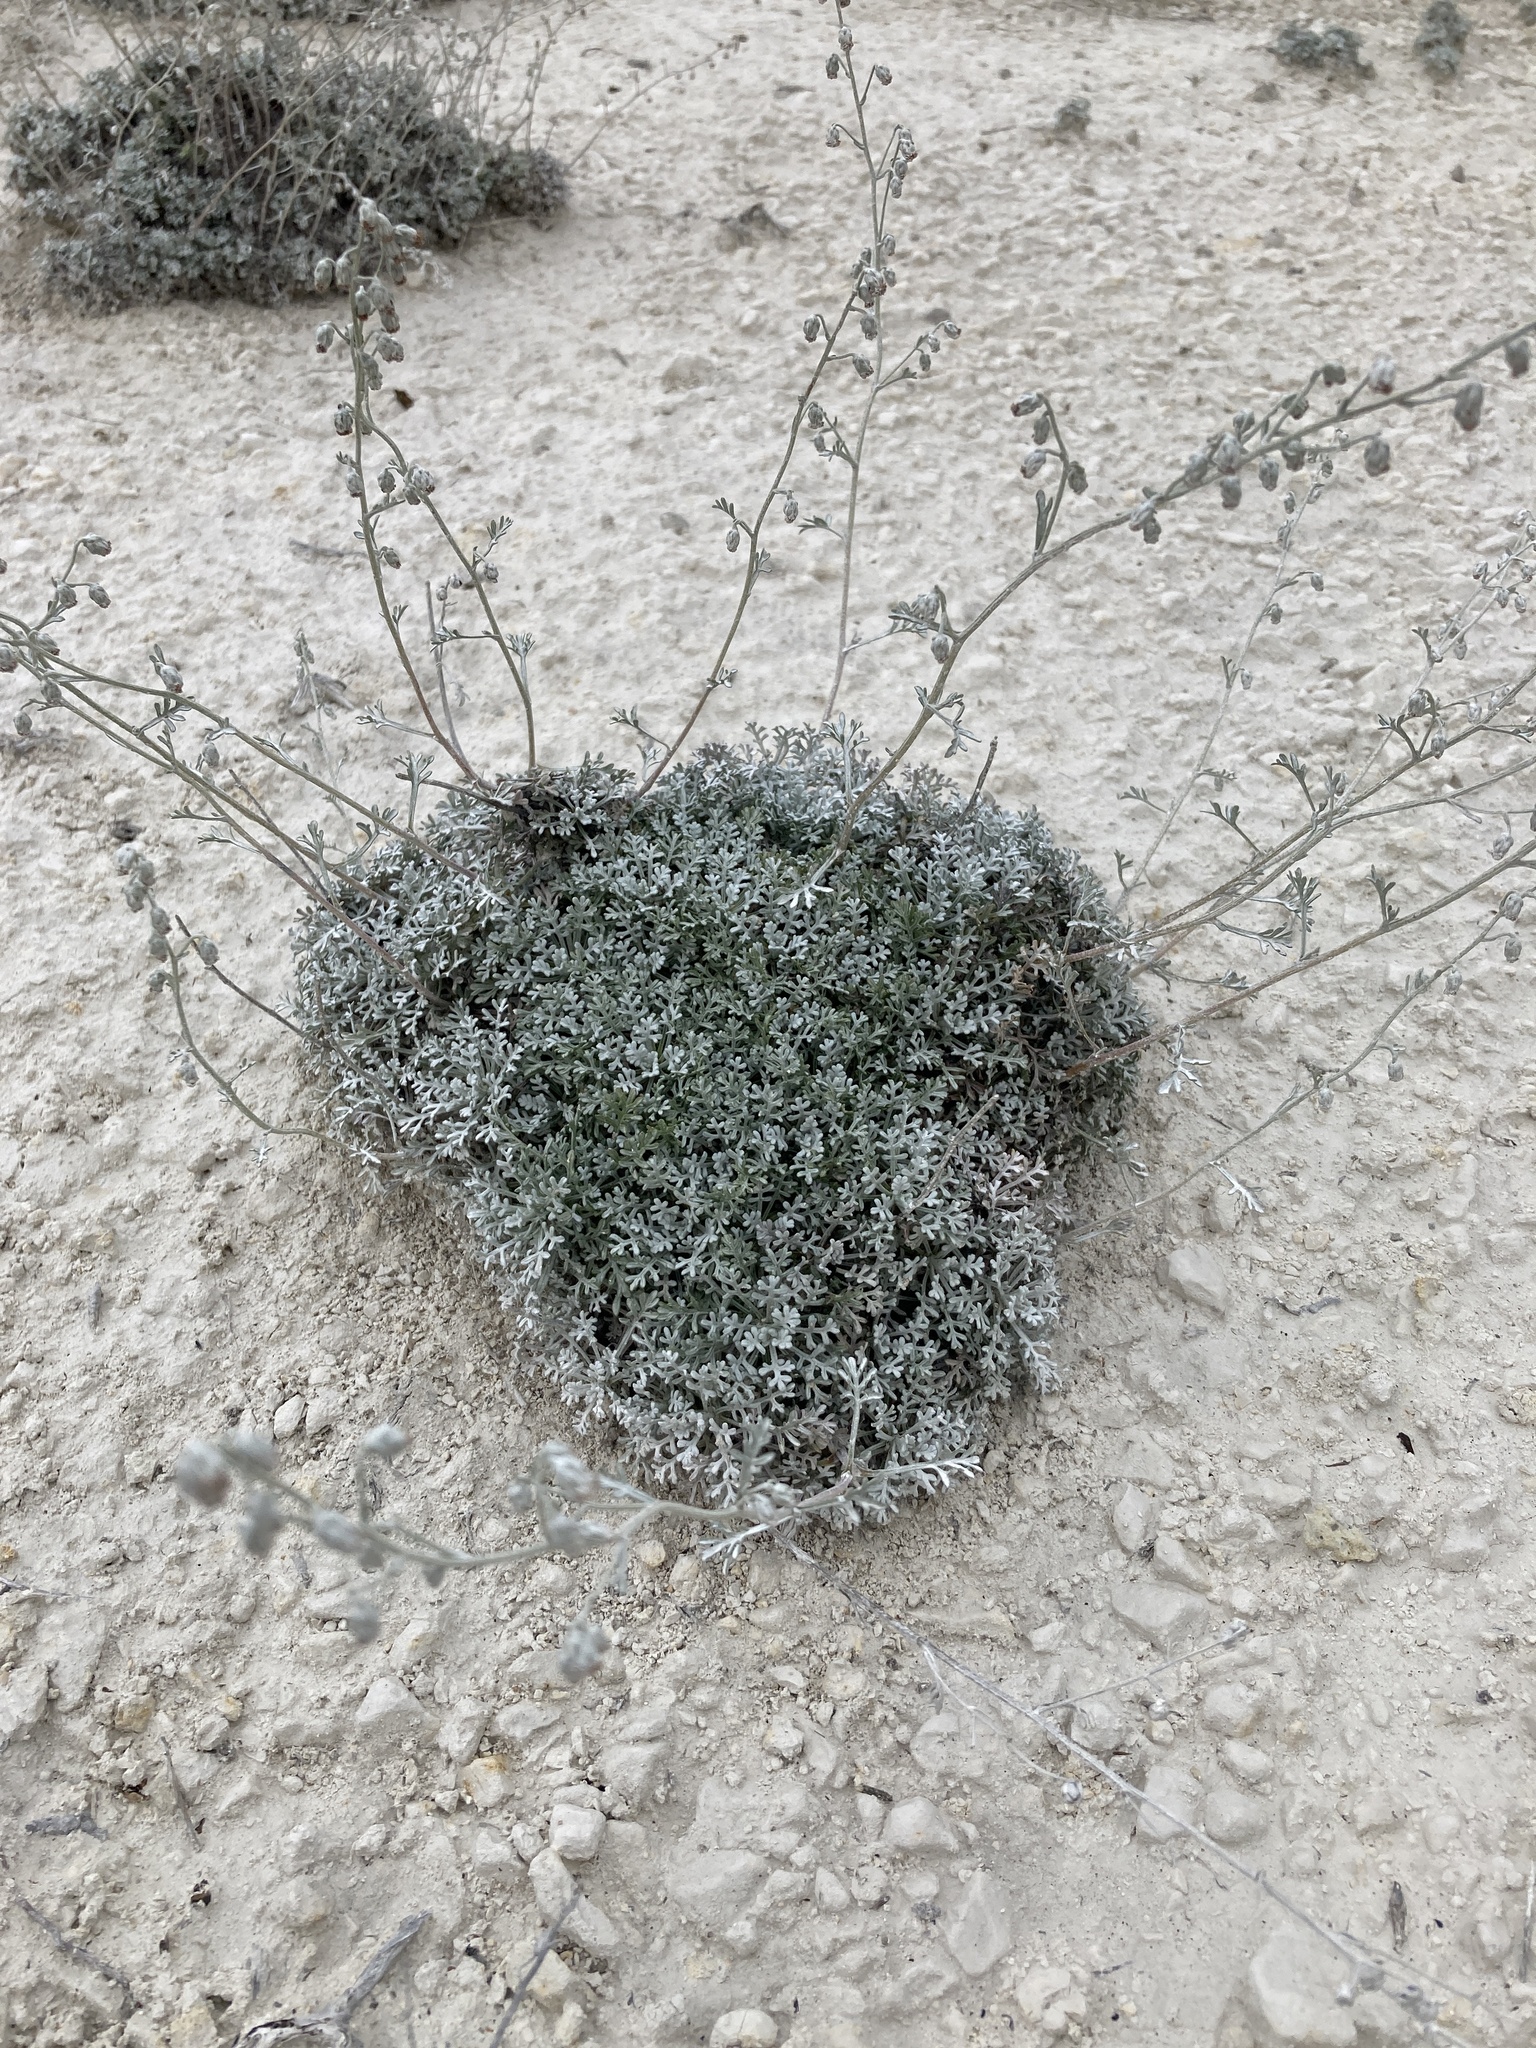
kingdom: Plantae
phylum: Tracheophyta
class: Magnoliopsida
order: Asterales
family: Asteraceae
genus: Artemisia
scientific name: Artemisia hololeuca
